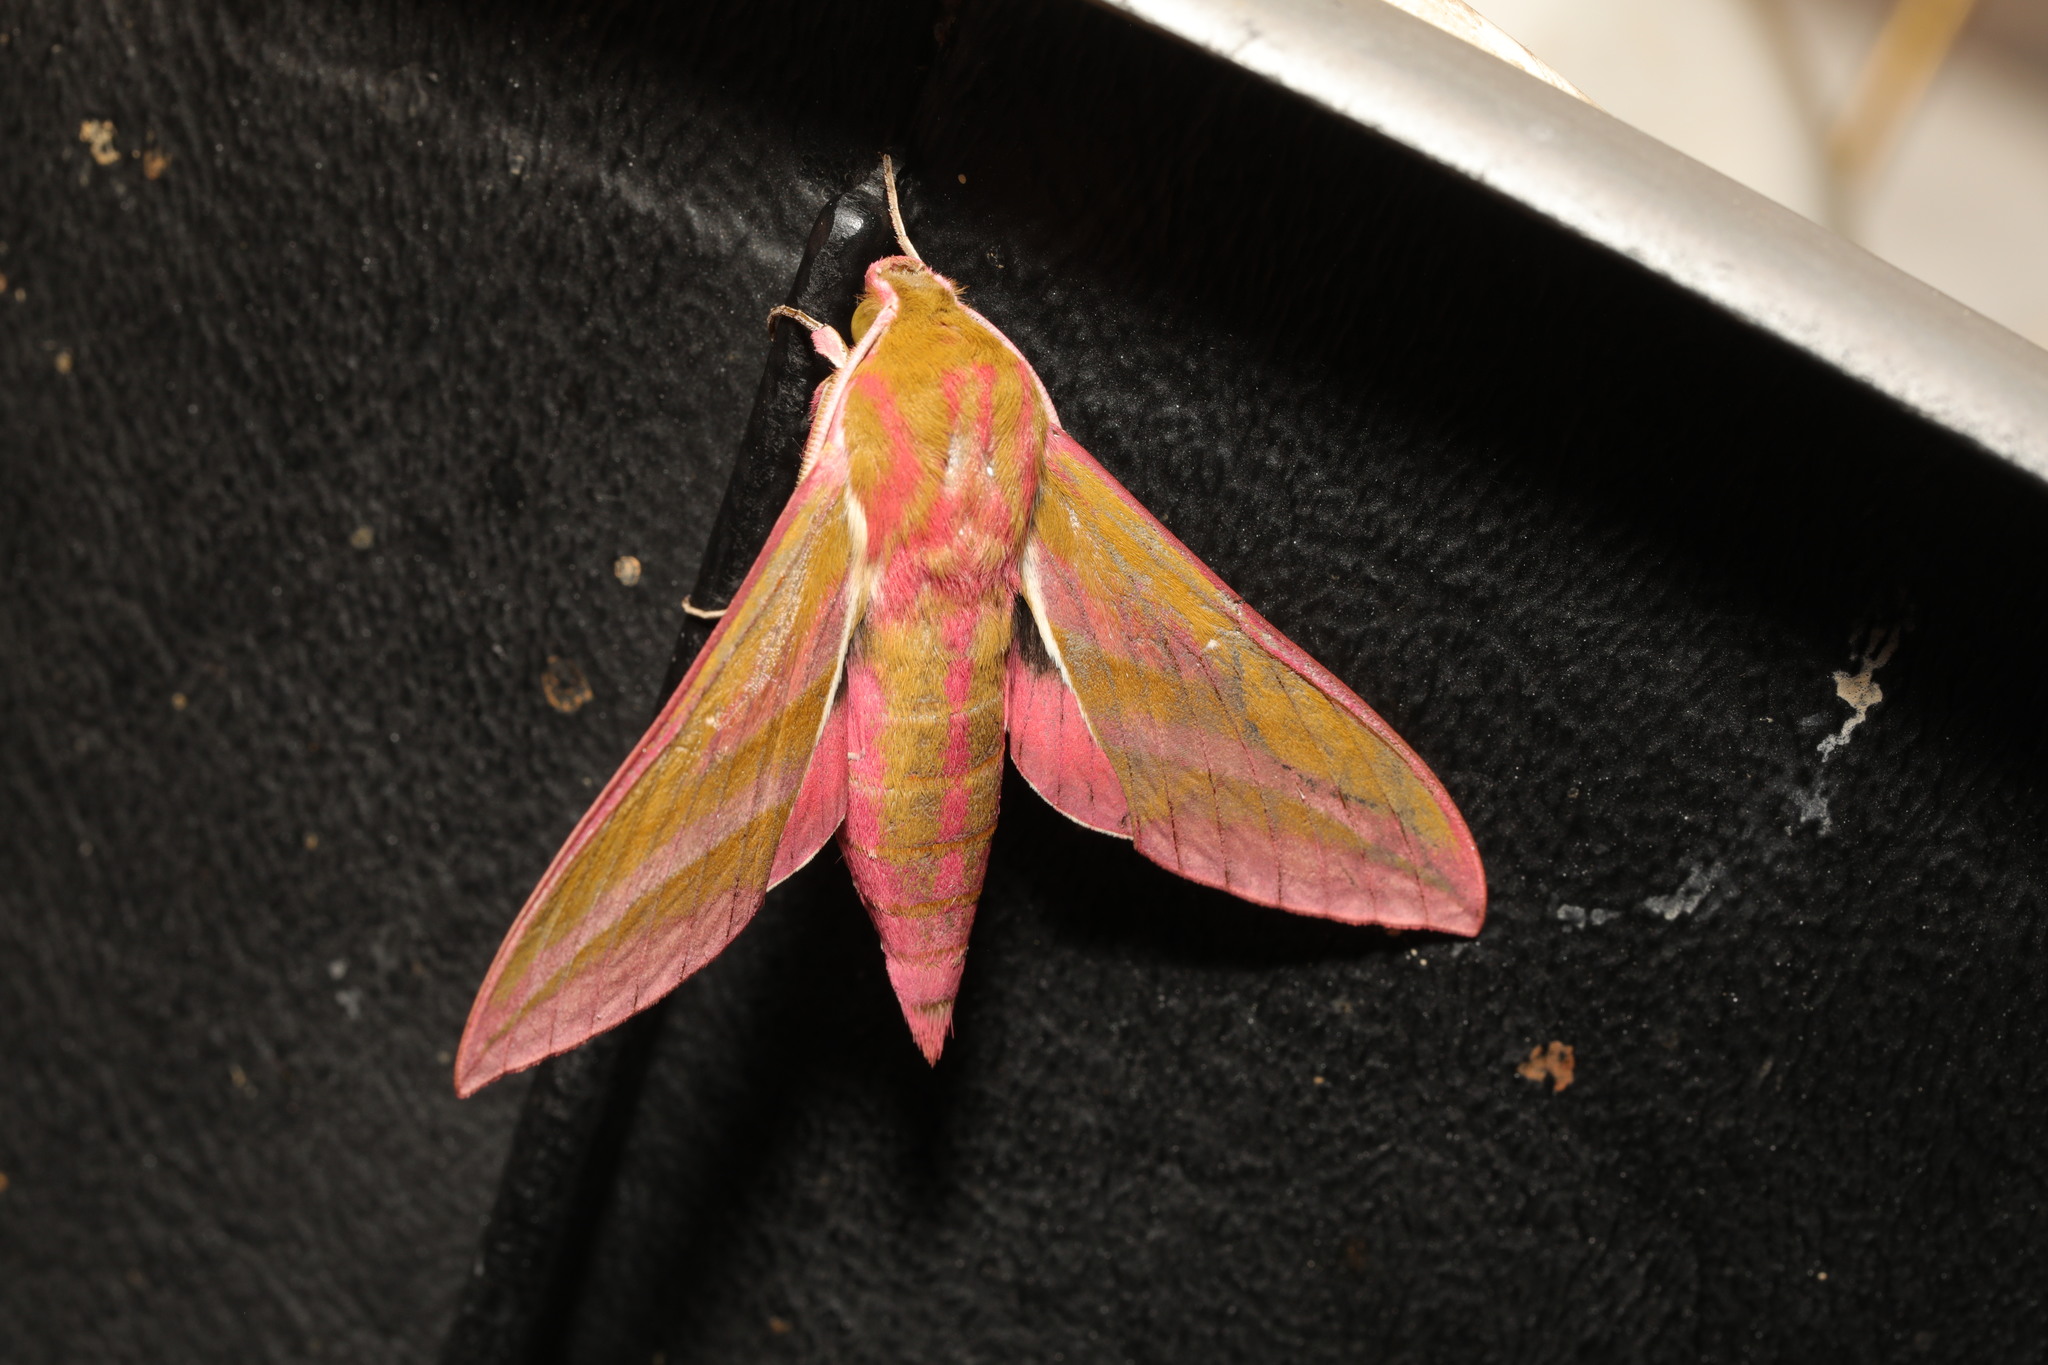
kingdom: Animalia
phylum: Arthropoda
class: Insecta
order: Lepidoptera
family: Sphingidae
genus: Deilephila
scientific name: Deilephila elpenor
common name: Elephant hawk-moth
